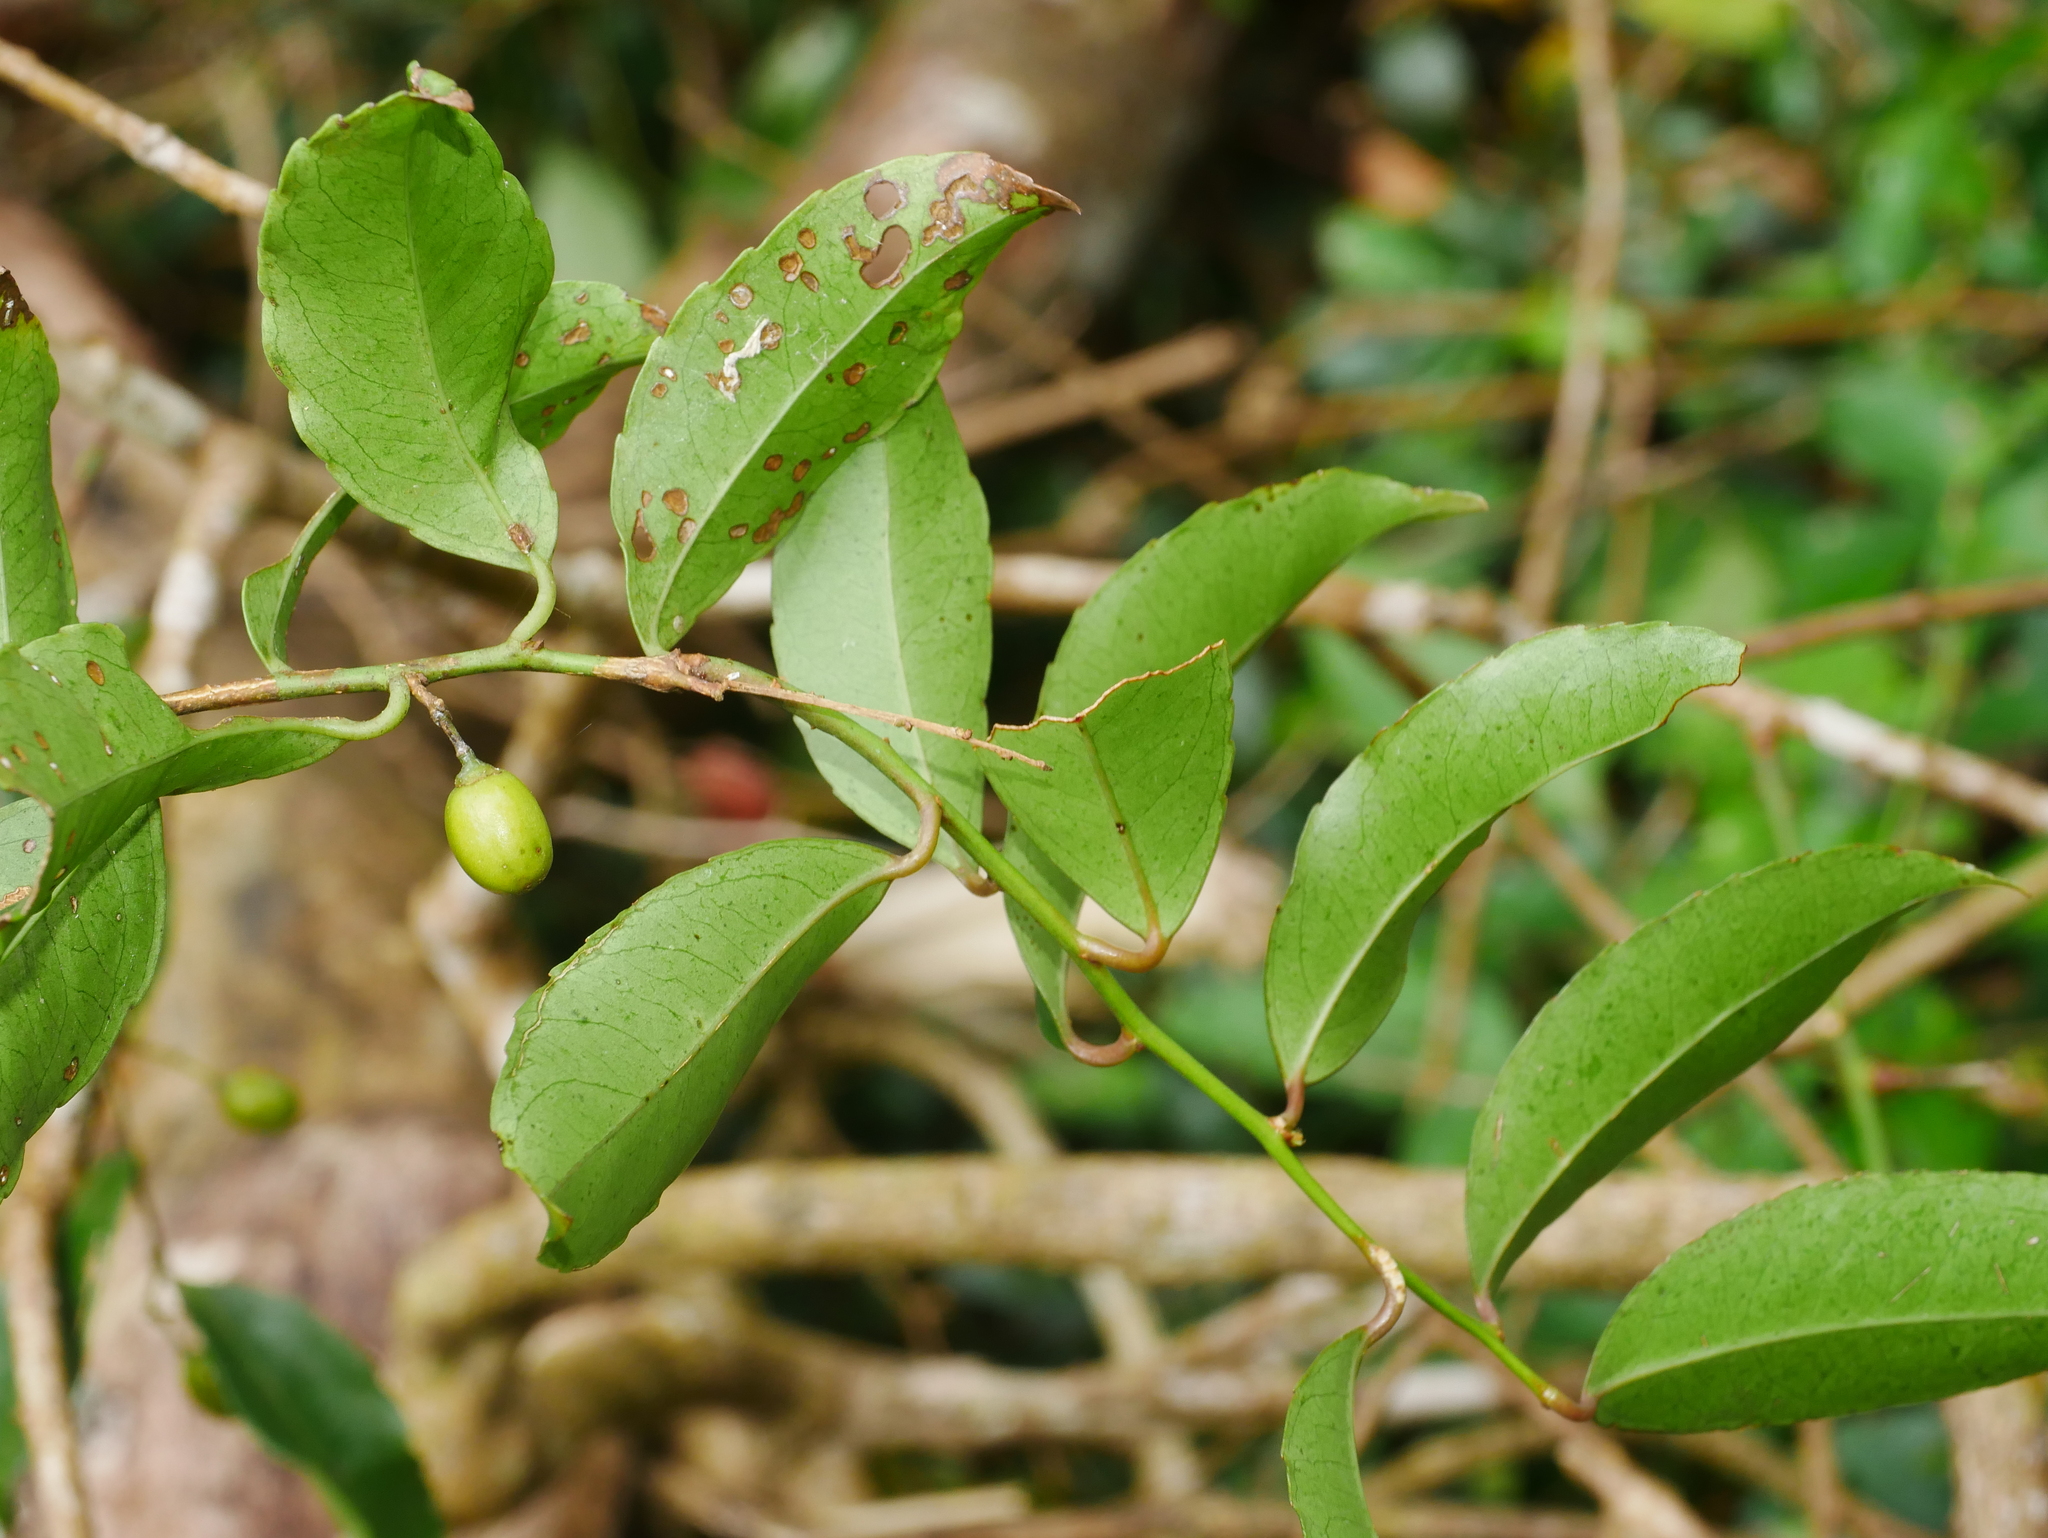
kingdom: Plantae
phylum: Tracheophyta
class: Magnoliopsida
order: Celastrales
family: Celastraceae
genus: Celastrus
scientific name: Celastrus hindsii
